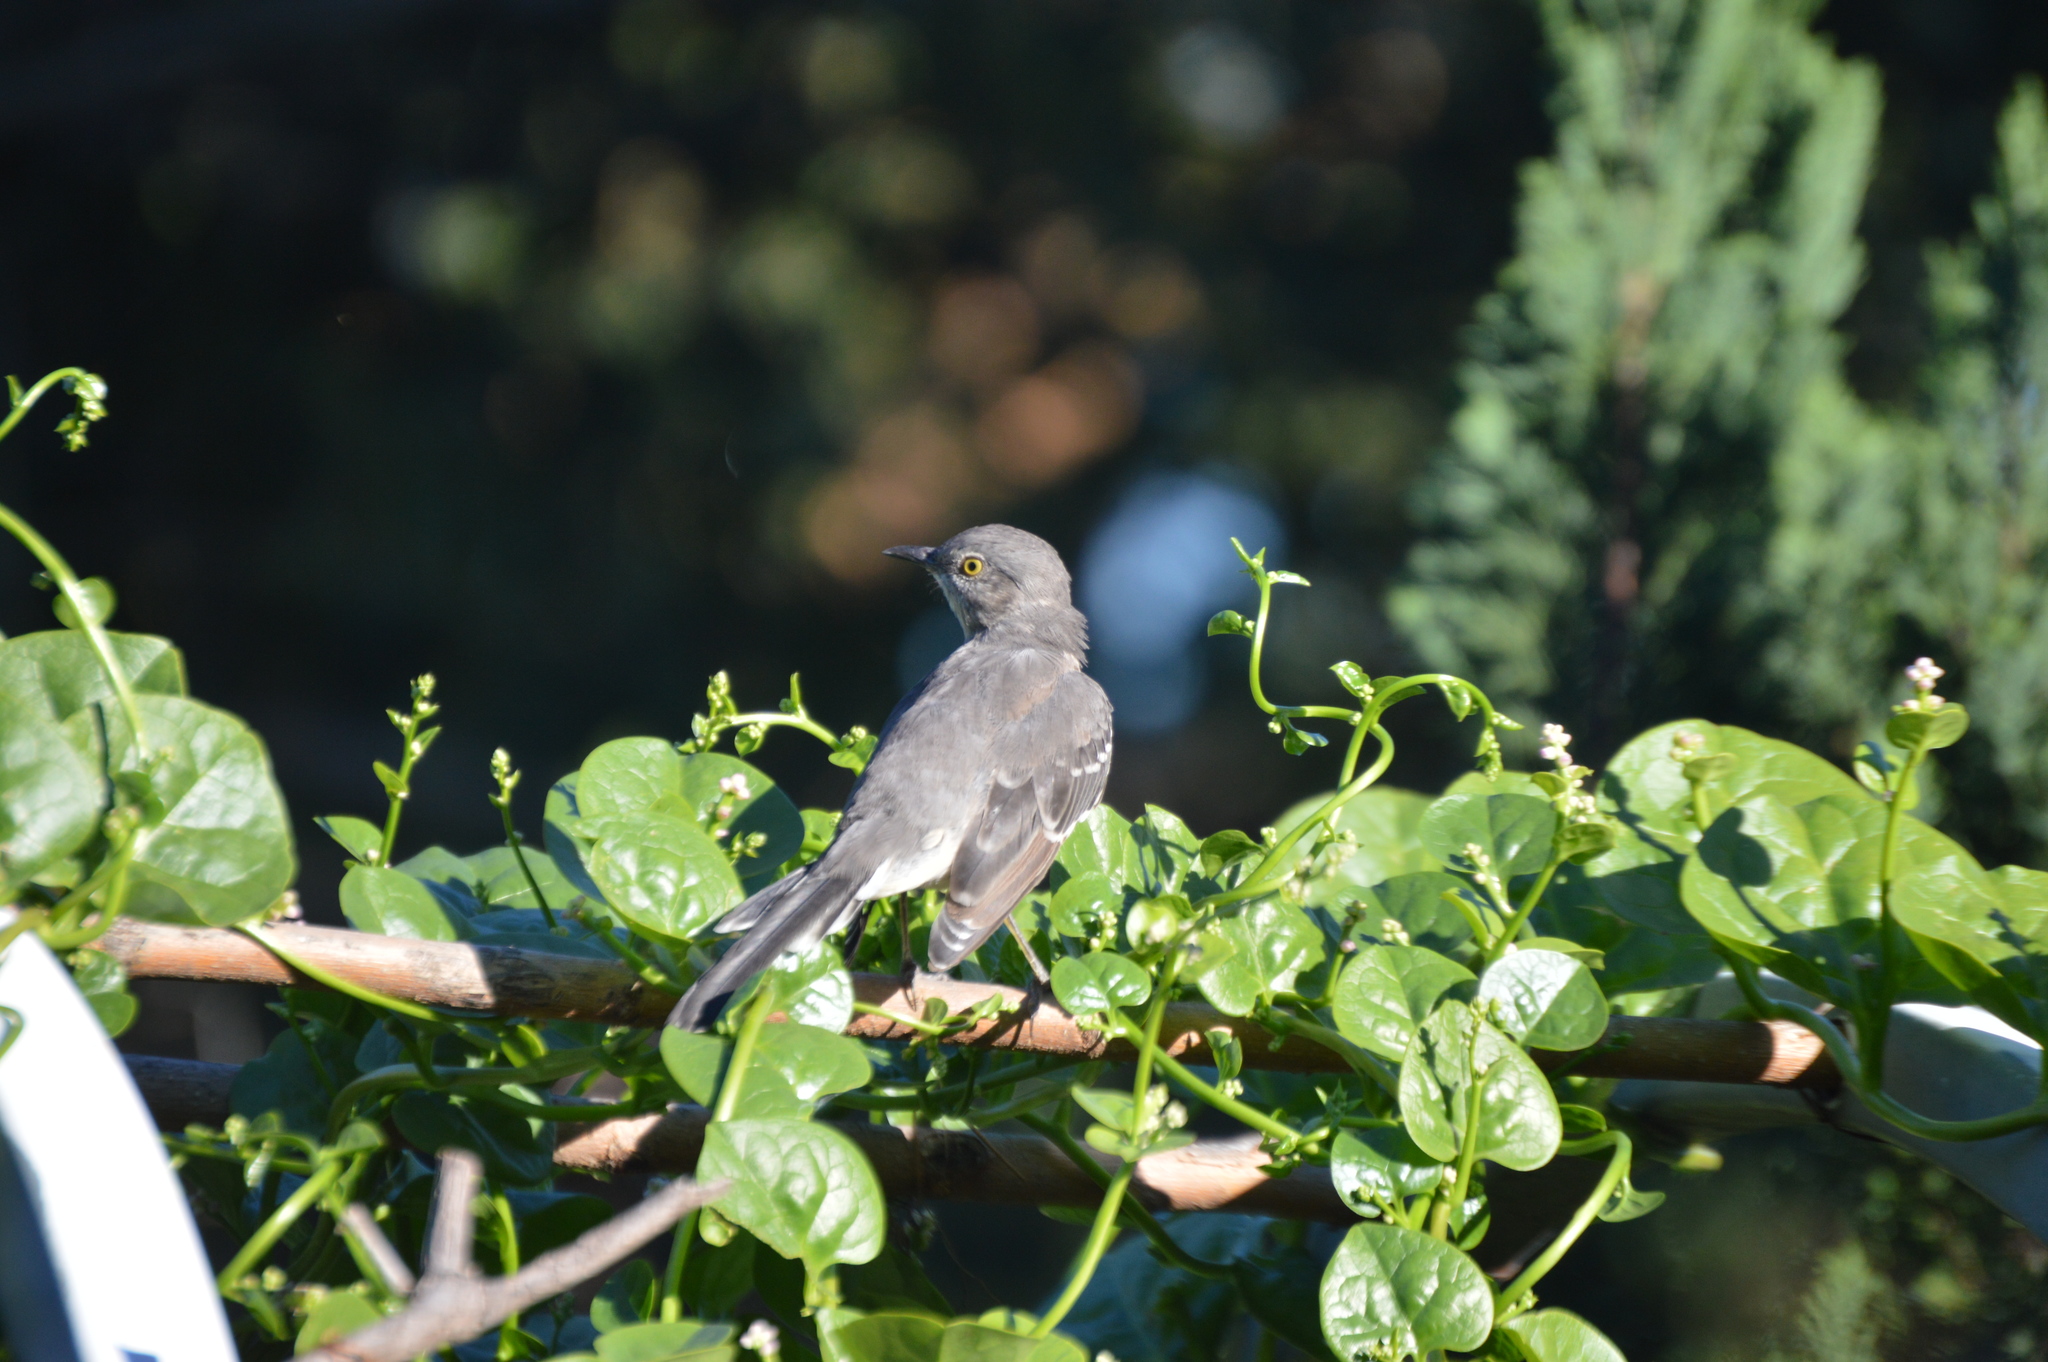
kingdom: Animalia
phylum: Chordata
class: Aves
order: Passeriformes
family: Mimidae
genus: Mimus
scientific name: Mimus polyglottos
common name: Northern mockingbird
